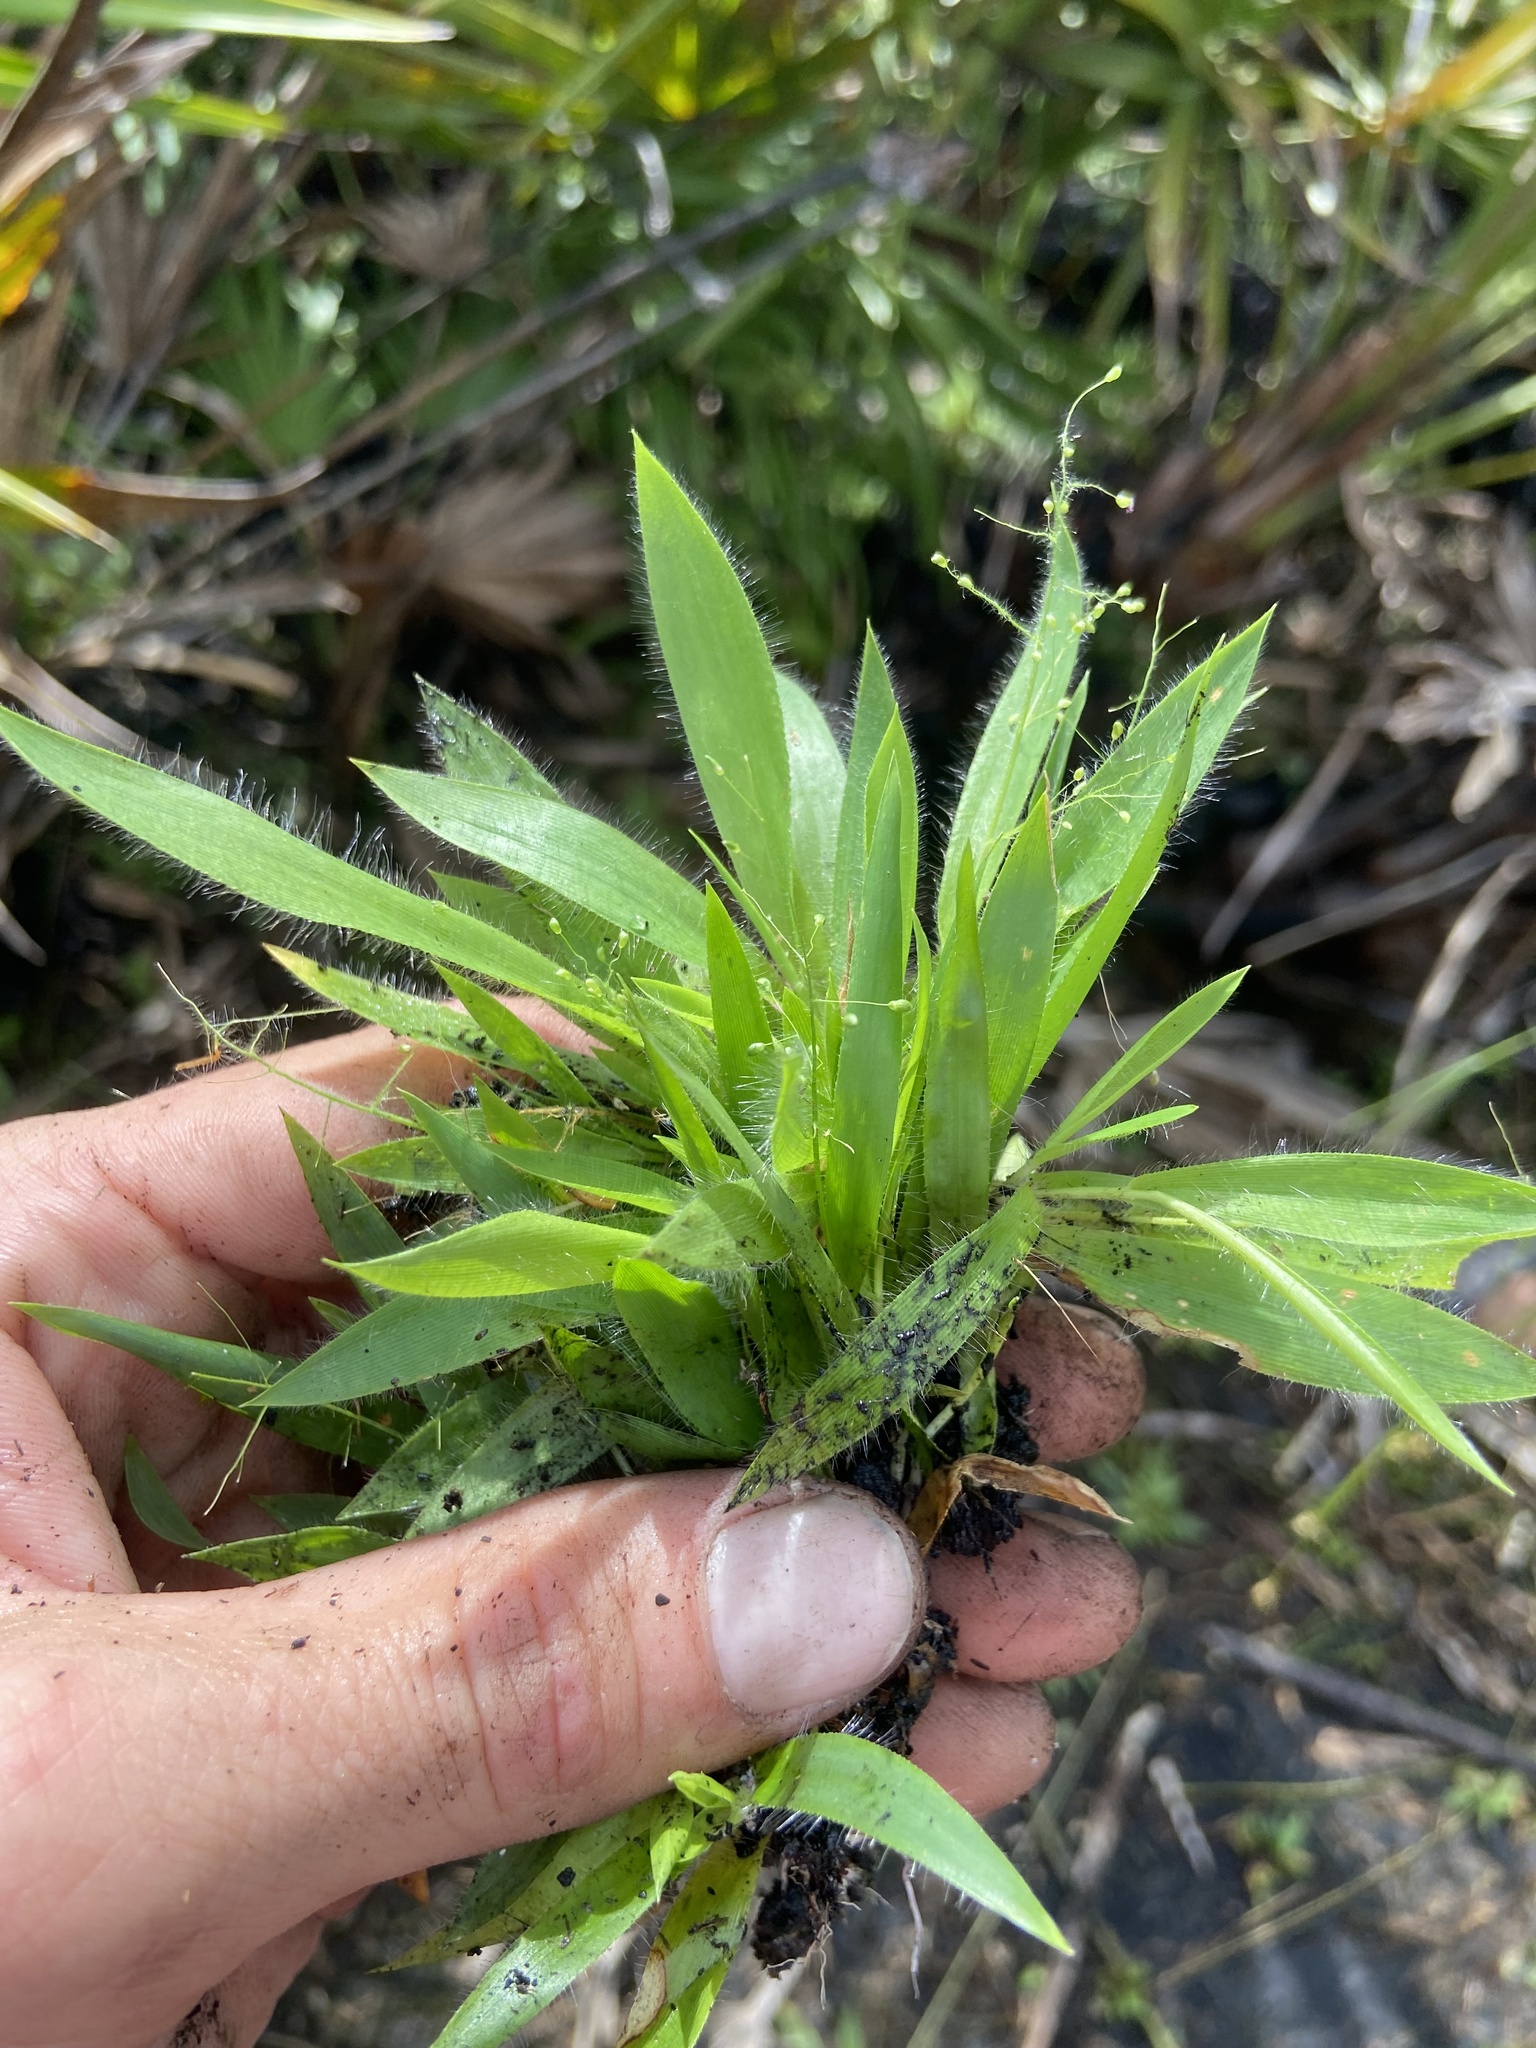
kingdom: Plantae
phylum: Tracheophyta
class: Liliopsida
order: Poales
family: Poaceae
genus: Dichanthelium
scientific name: Dichanthelium strigosum
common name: Cushion-tuft panic grass
